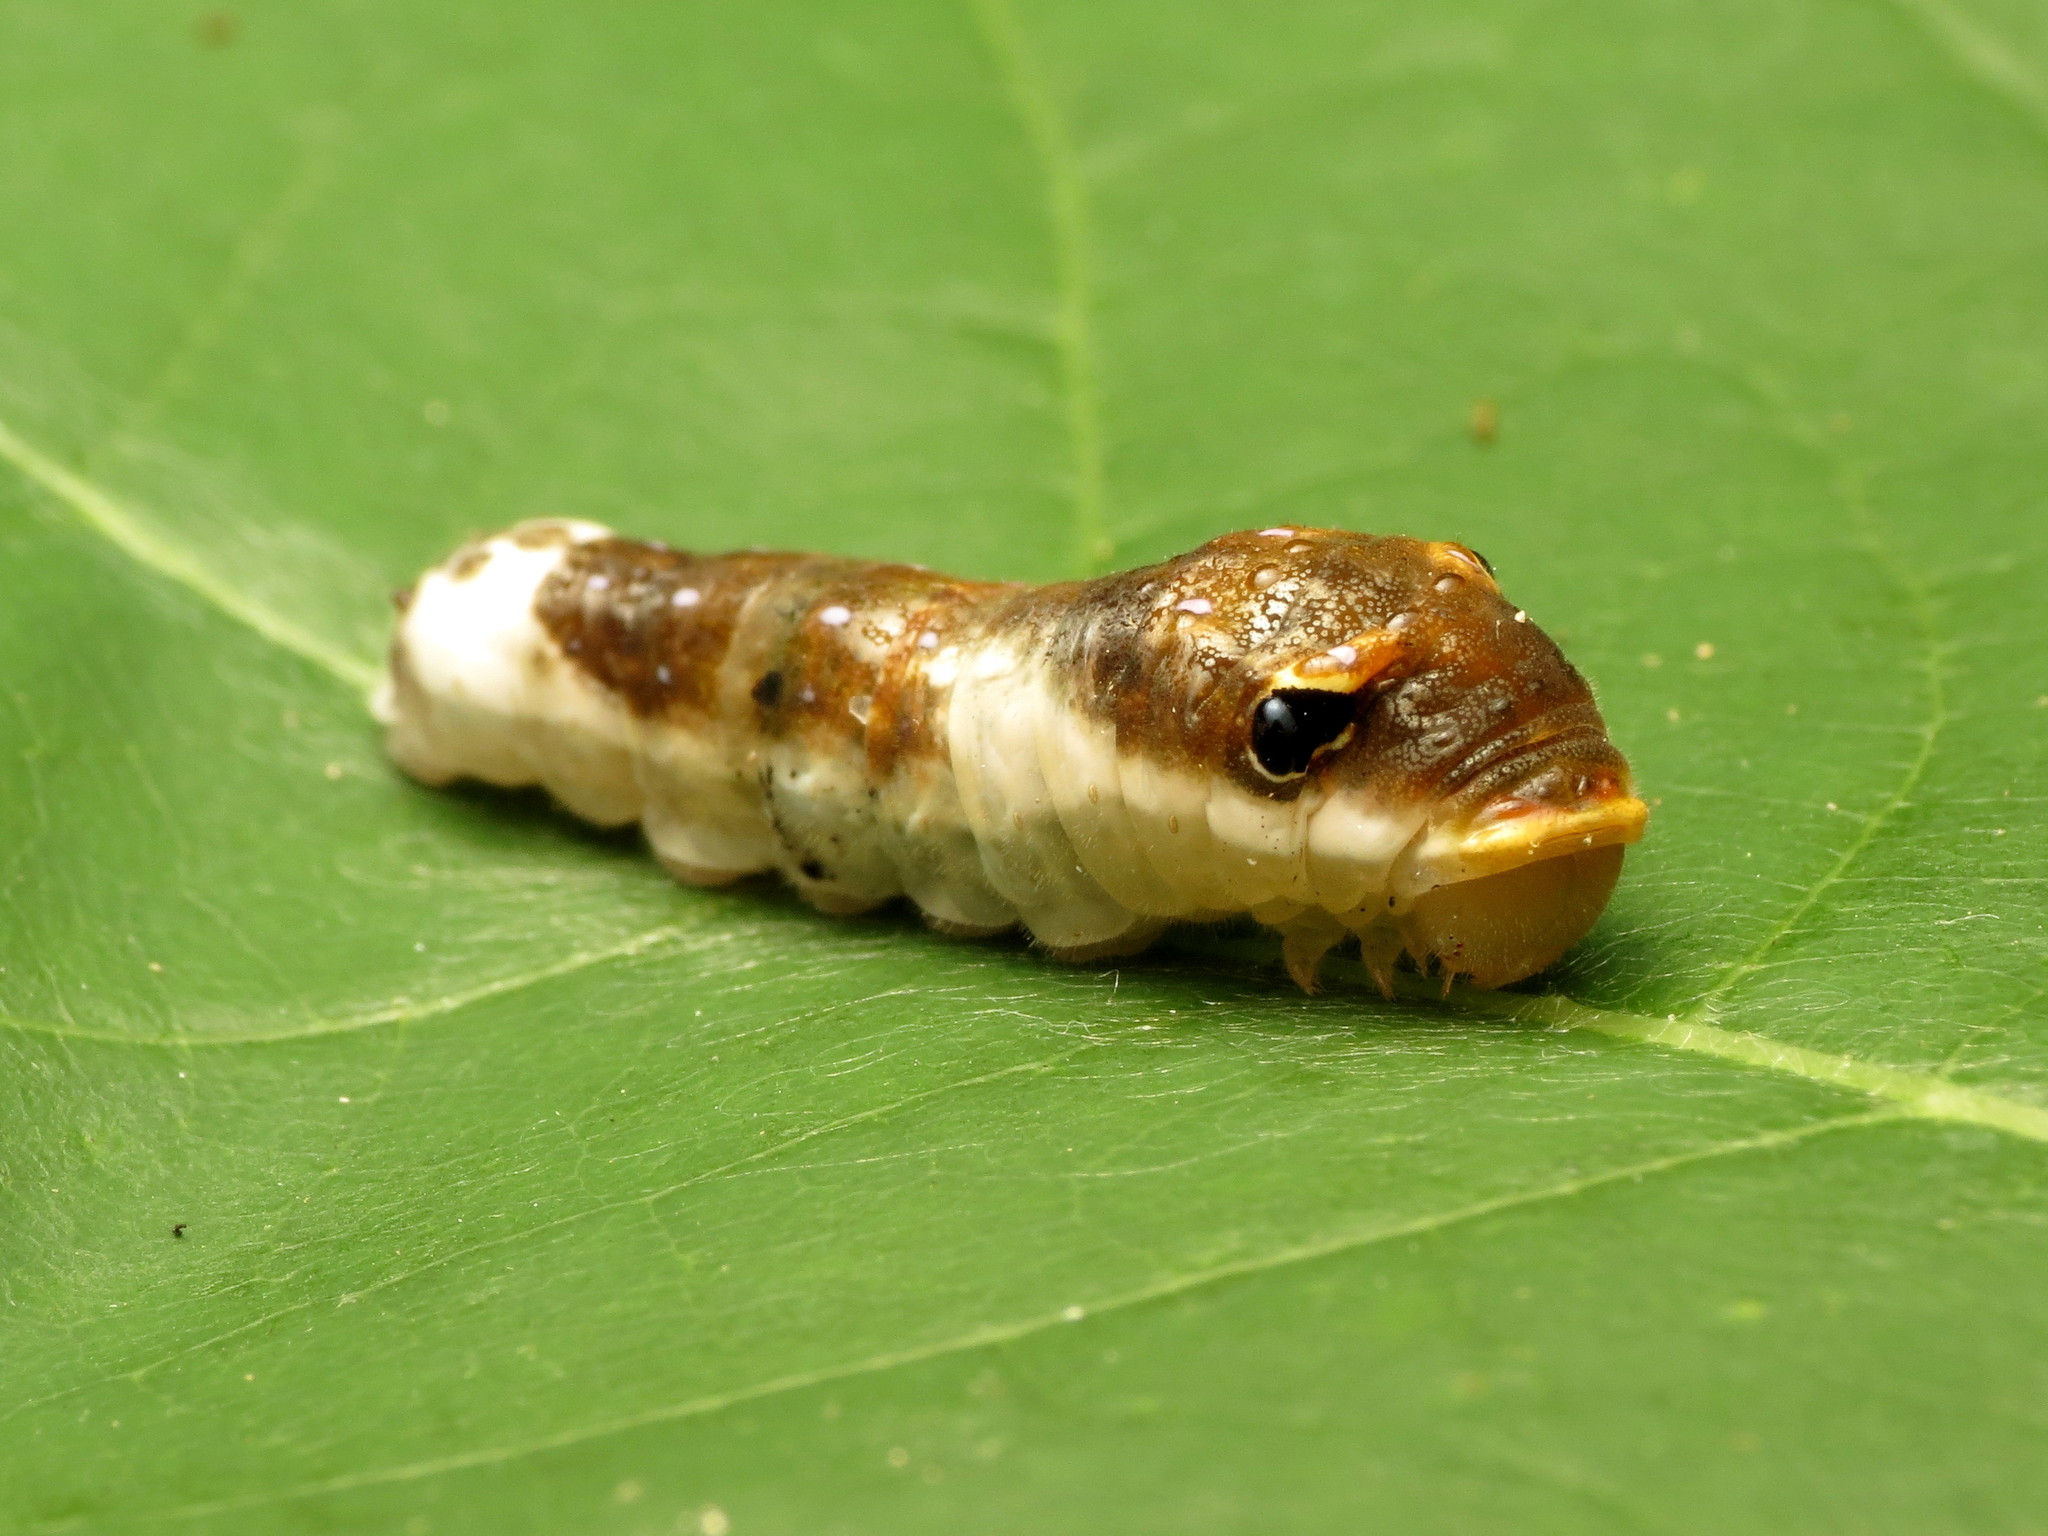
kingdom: Animalia
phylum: Arthropoda
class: Insecta
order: Lepidoptera
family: Papilionidae
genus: Papilio
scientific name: Papilio troilus
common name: Spicebush swallowtail
